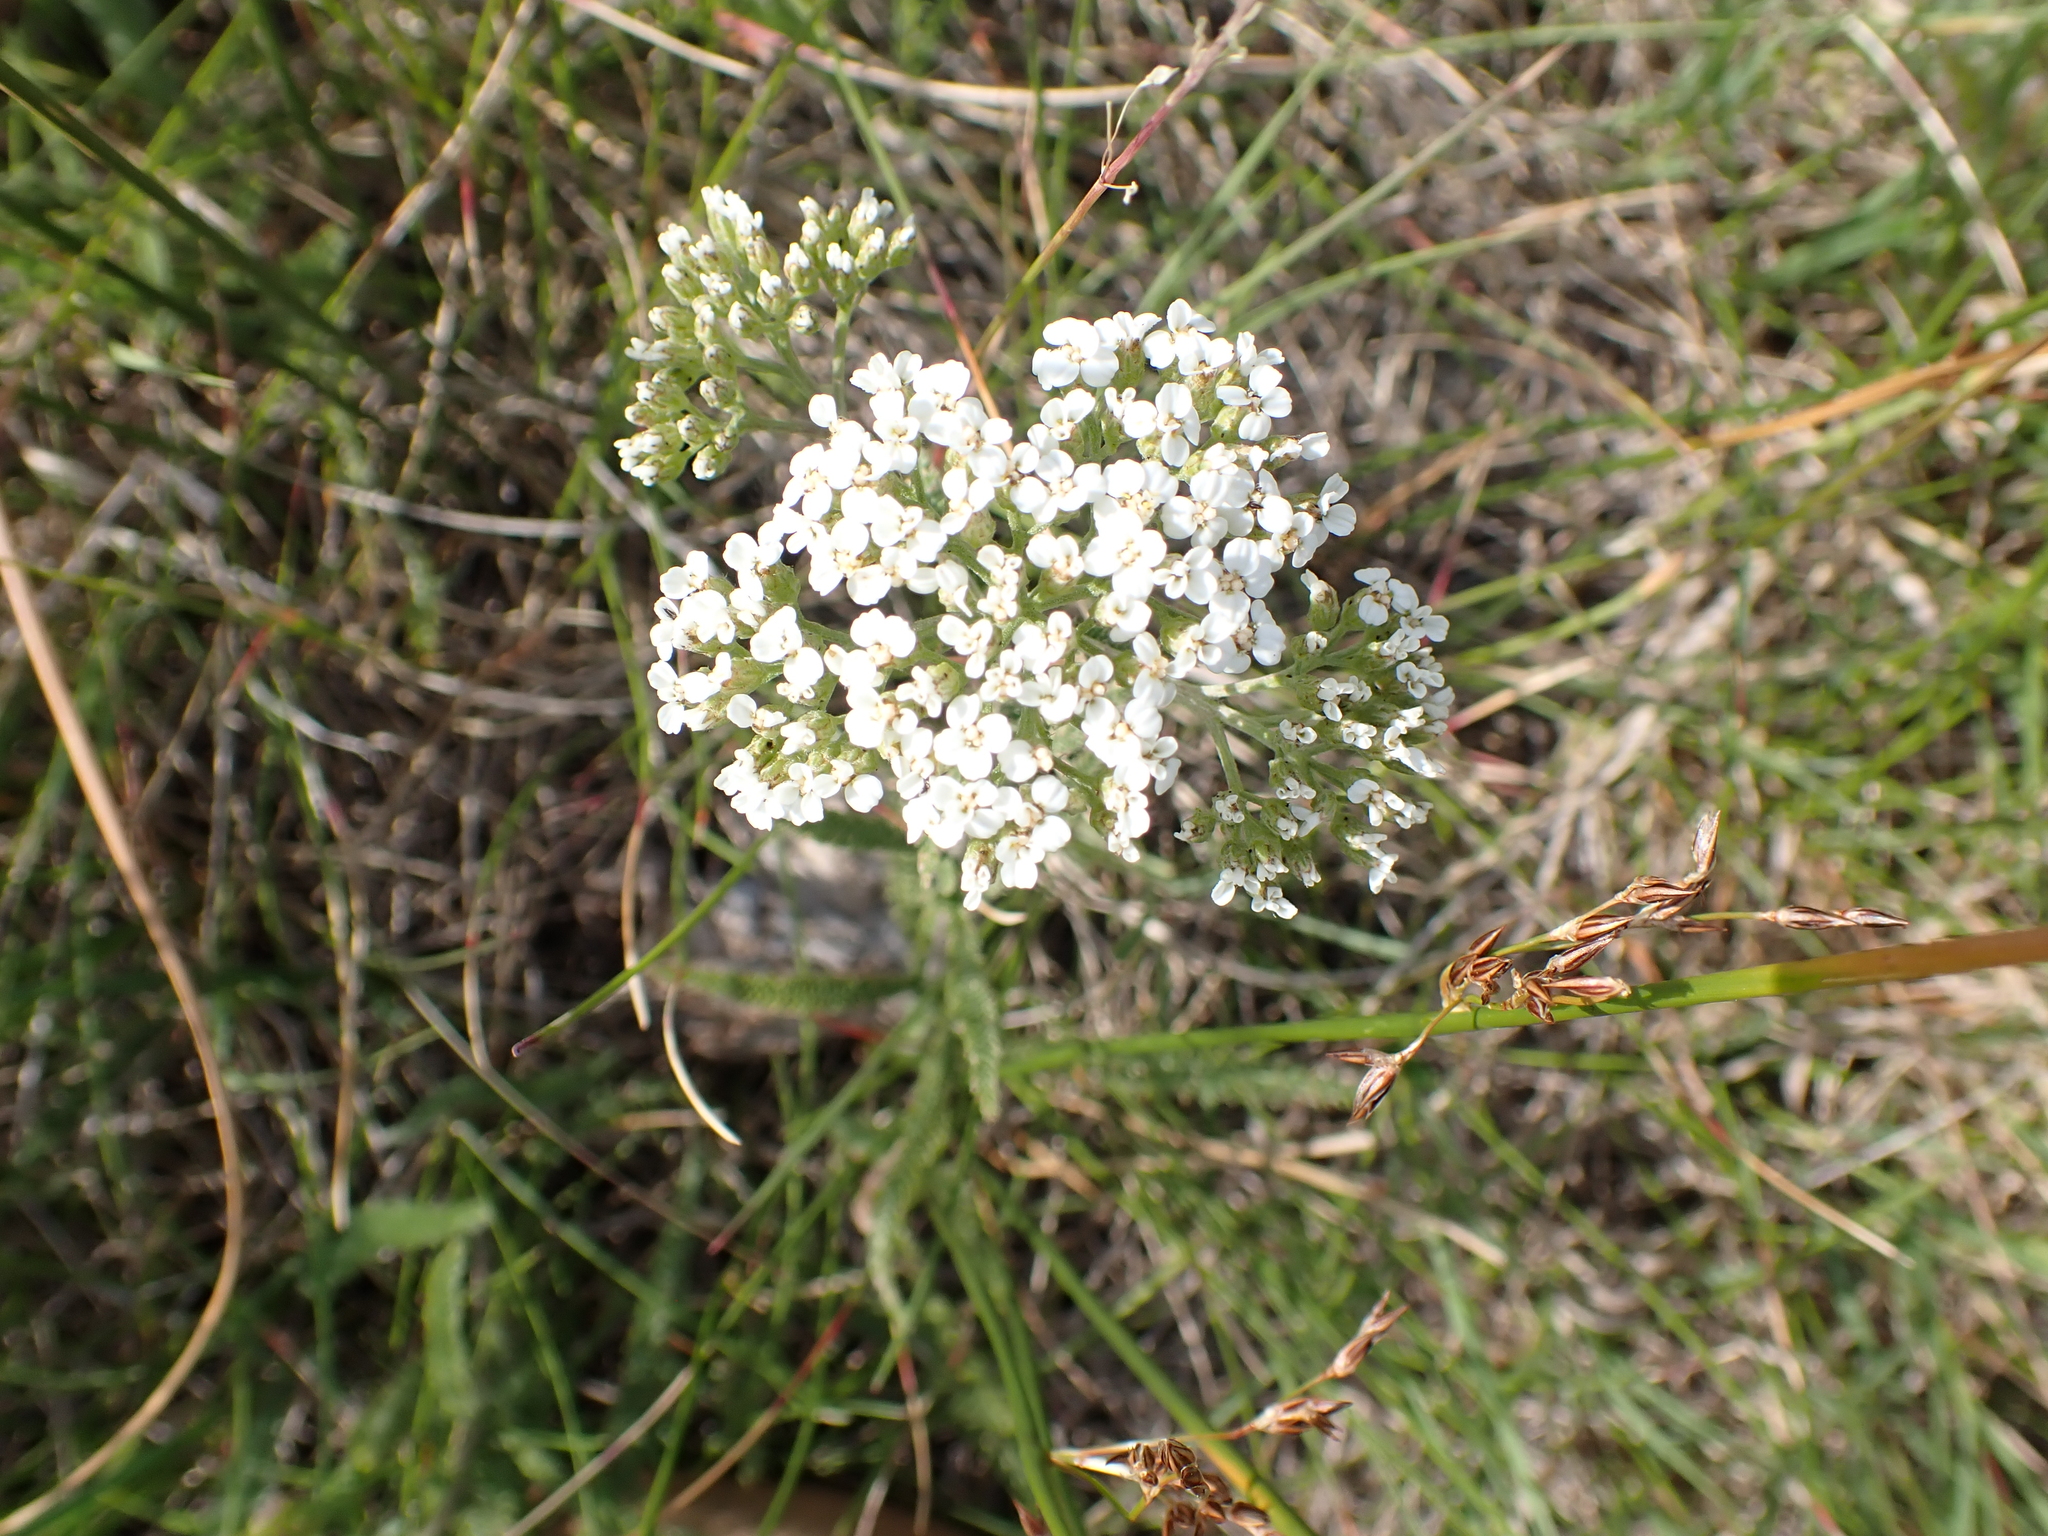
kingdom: Plantae
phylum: Tracheophyta
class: Magnoliopsida
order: Asterales
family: Asteraceae
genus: Achillea
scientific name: Achillea millefolium
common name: Yarrow
